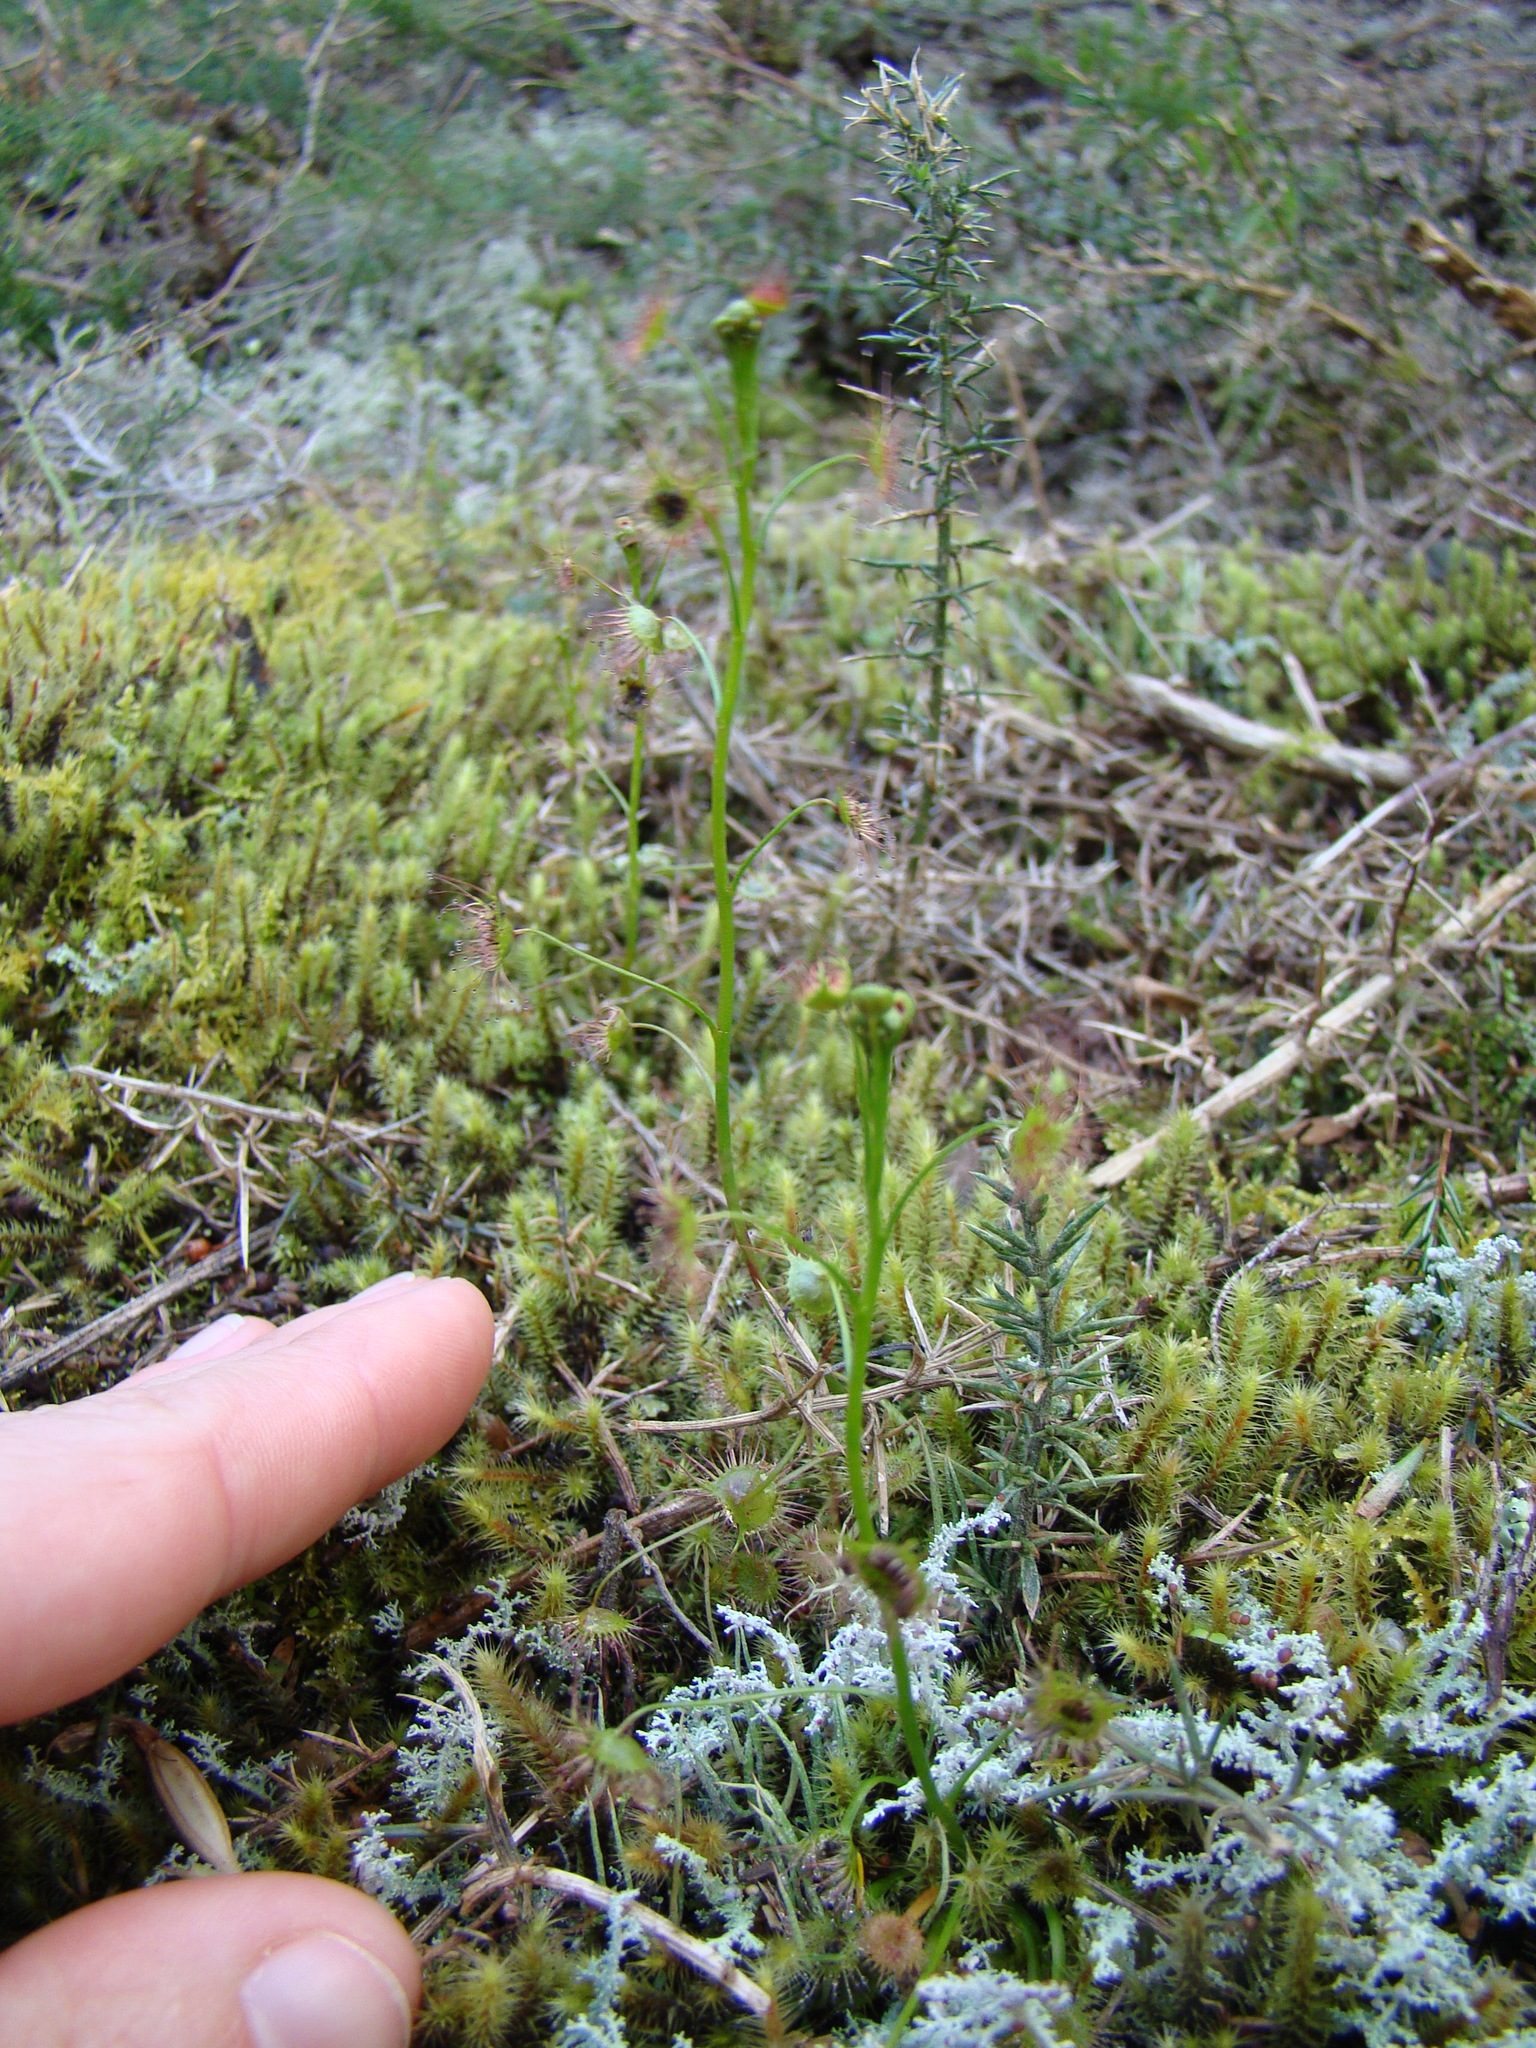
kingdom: Plantae
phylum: Tracheophyta
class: Magnoliopsida
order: Caryophyllales
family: Droseraceae
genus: Drosera
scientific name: Drosera peltata
